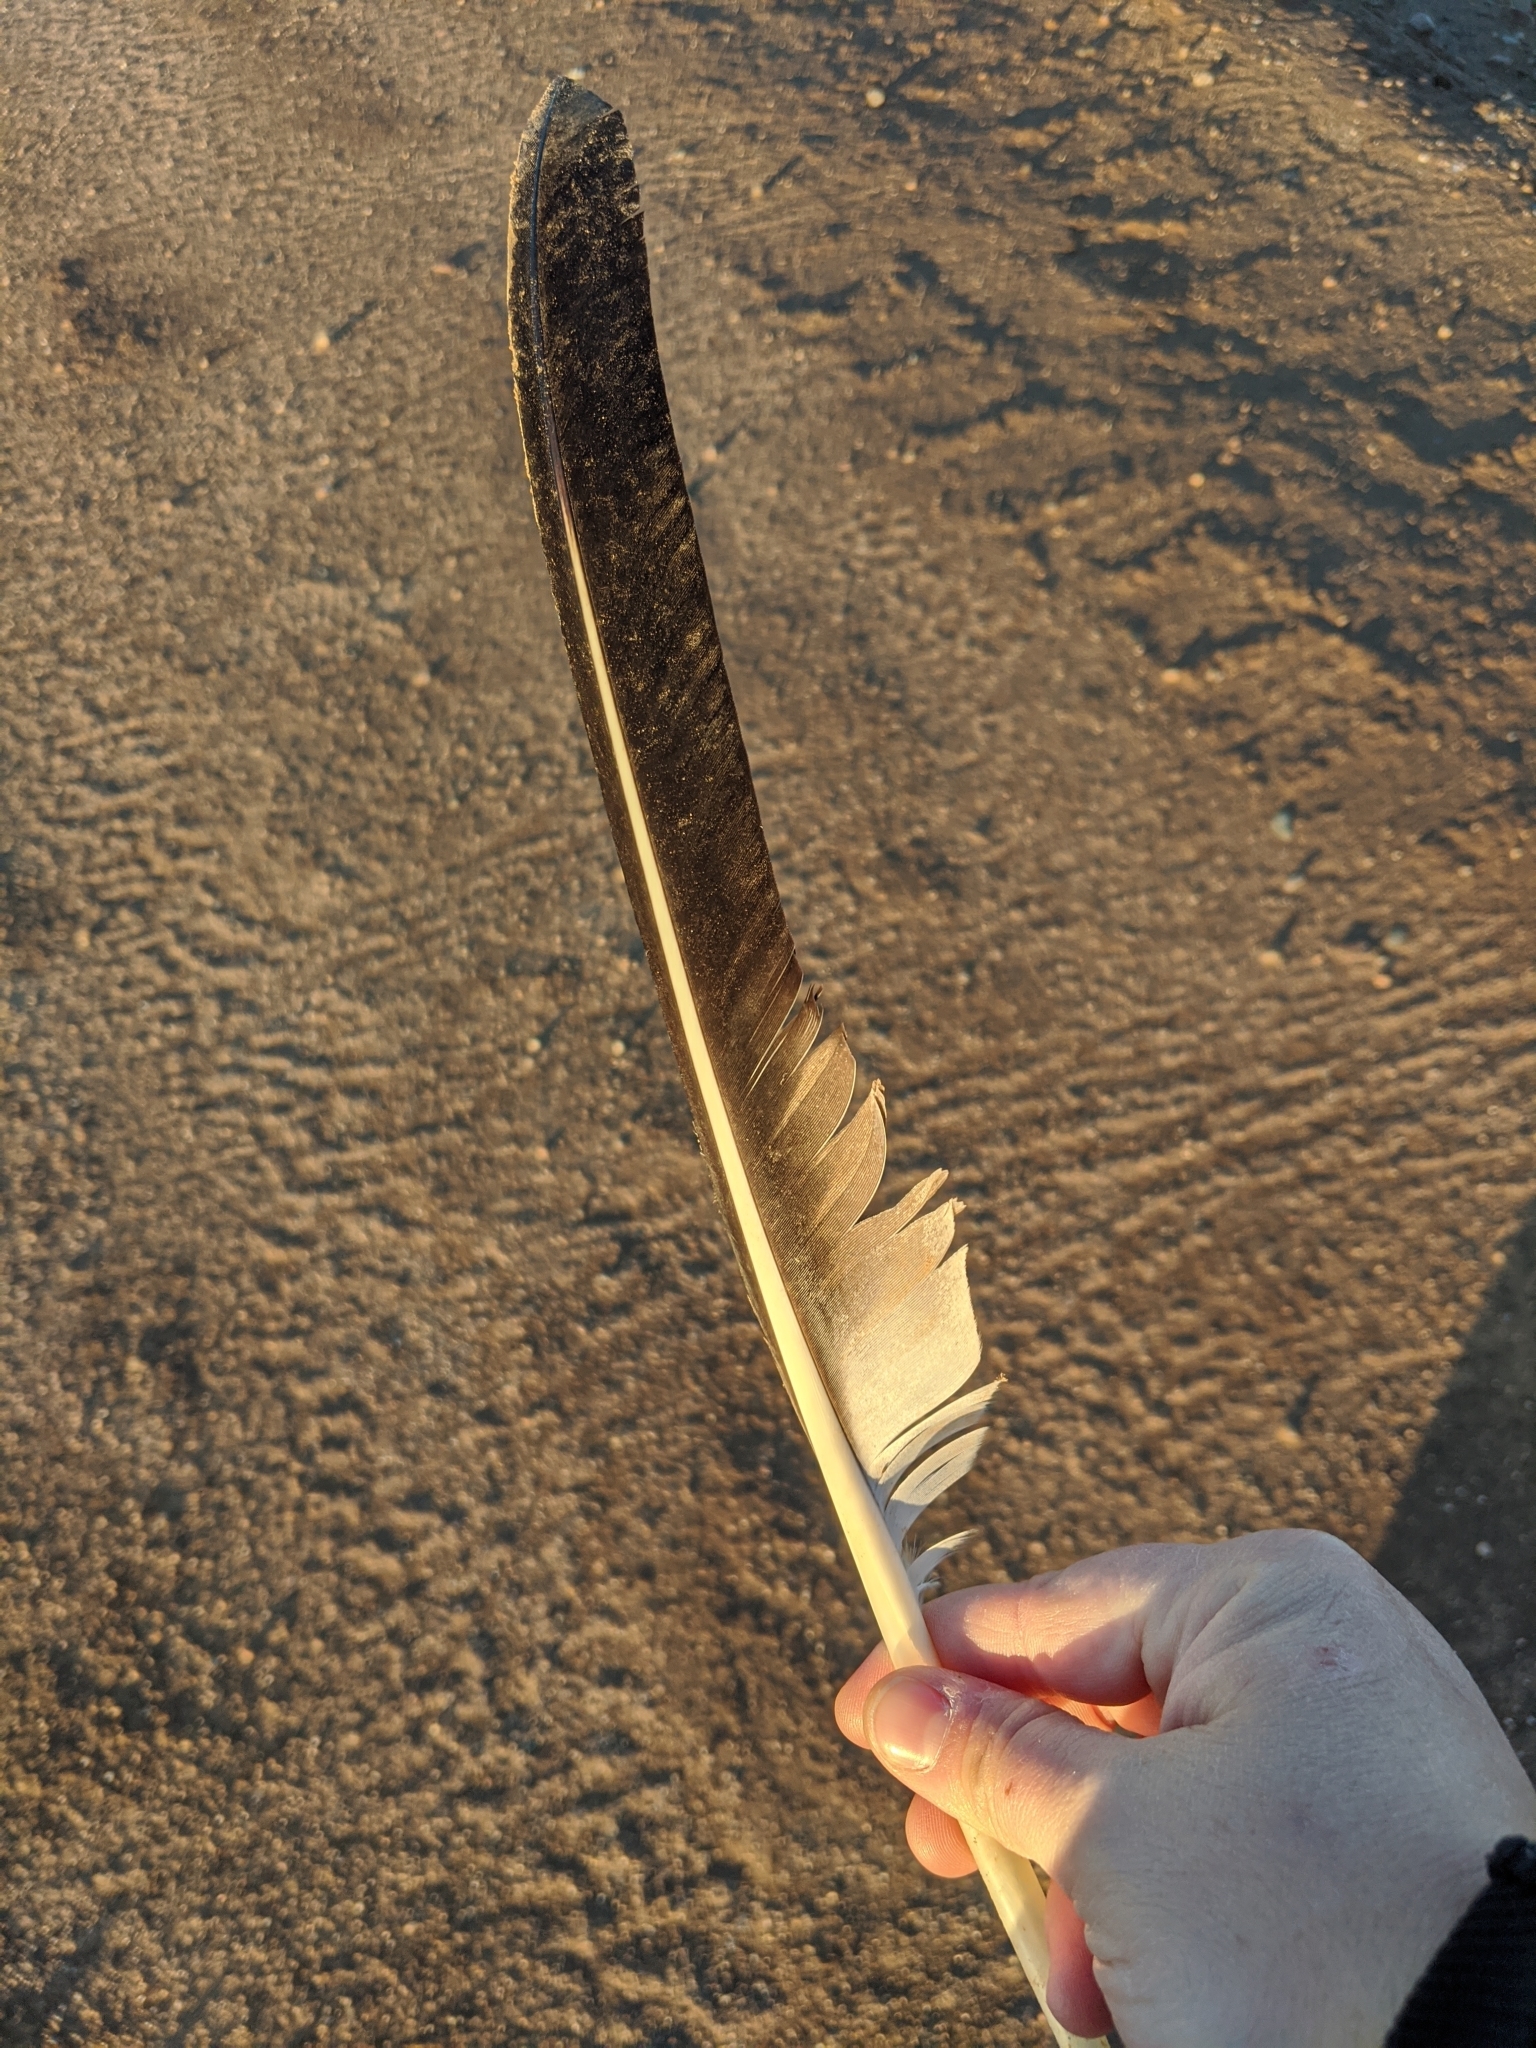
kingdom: Animalia
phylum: Chordata
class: Aves
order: Pelecaniformes
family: Pelecanidae
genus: Pelecanus
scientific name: Pelecanus erythrorhynchos
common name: American white pelican
